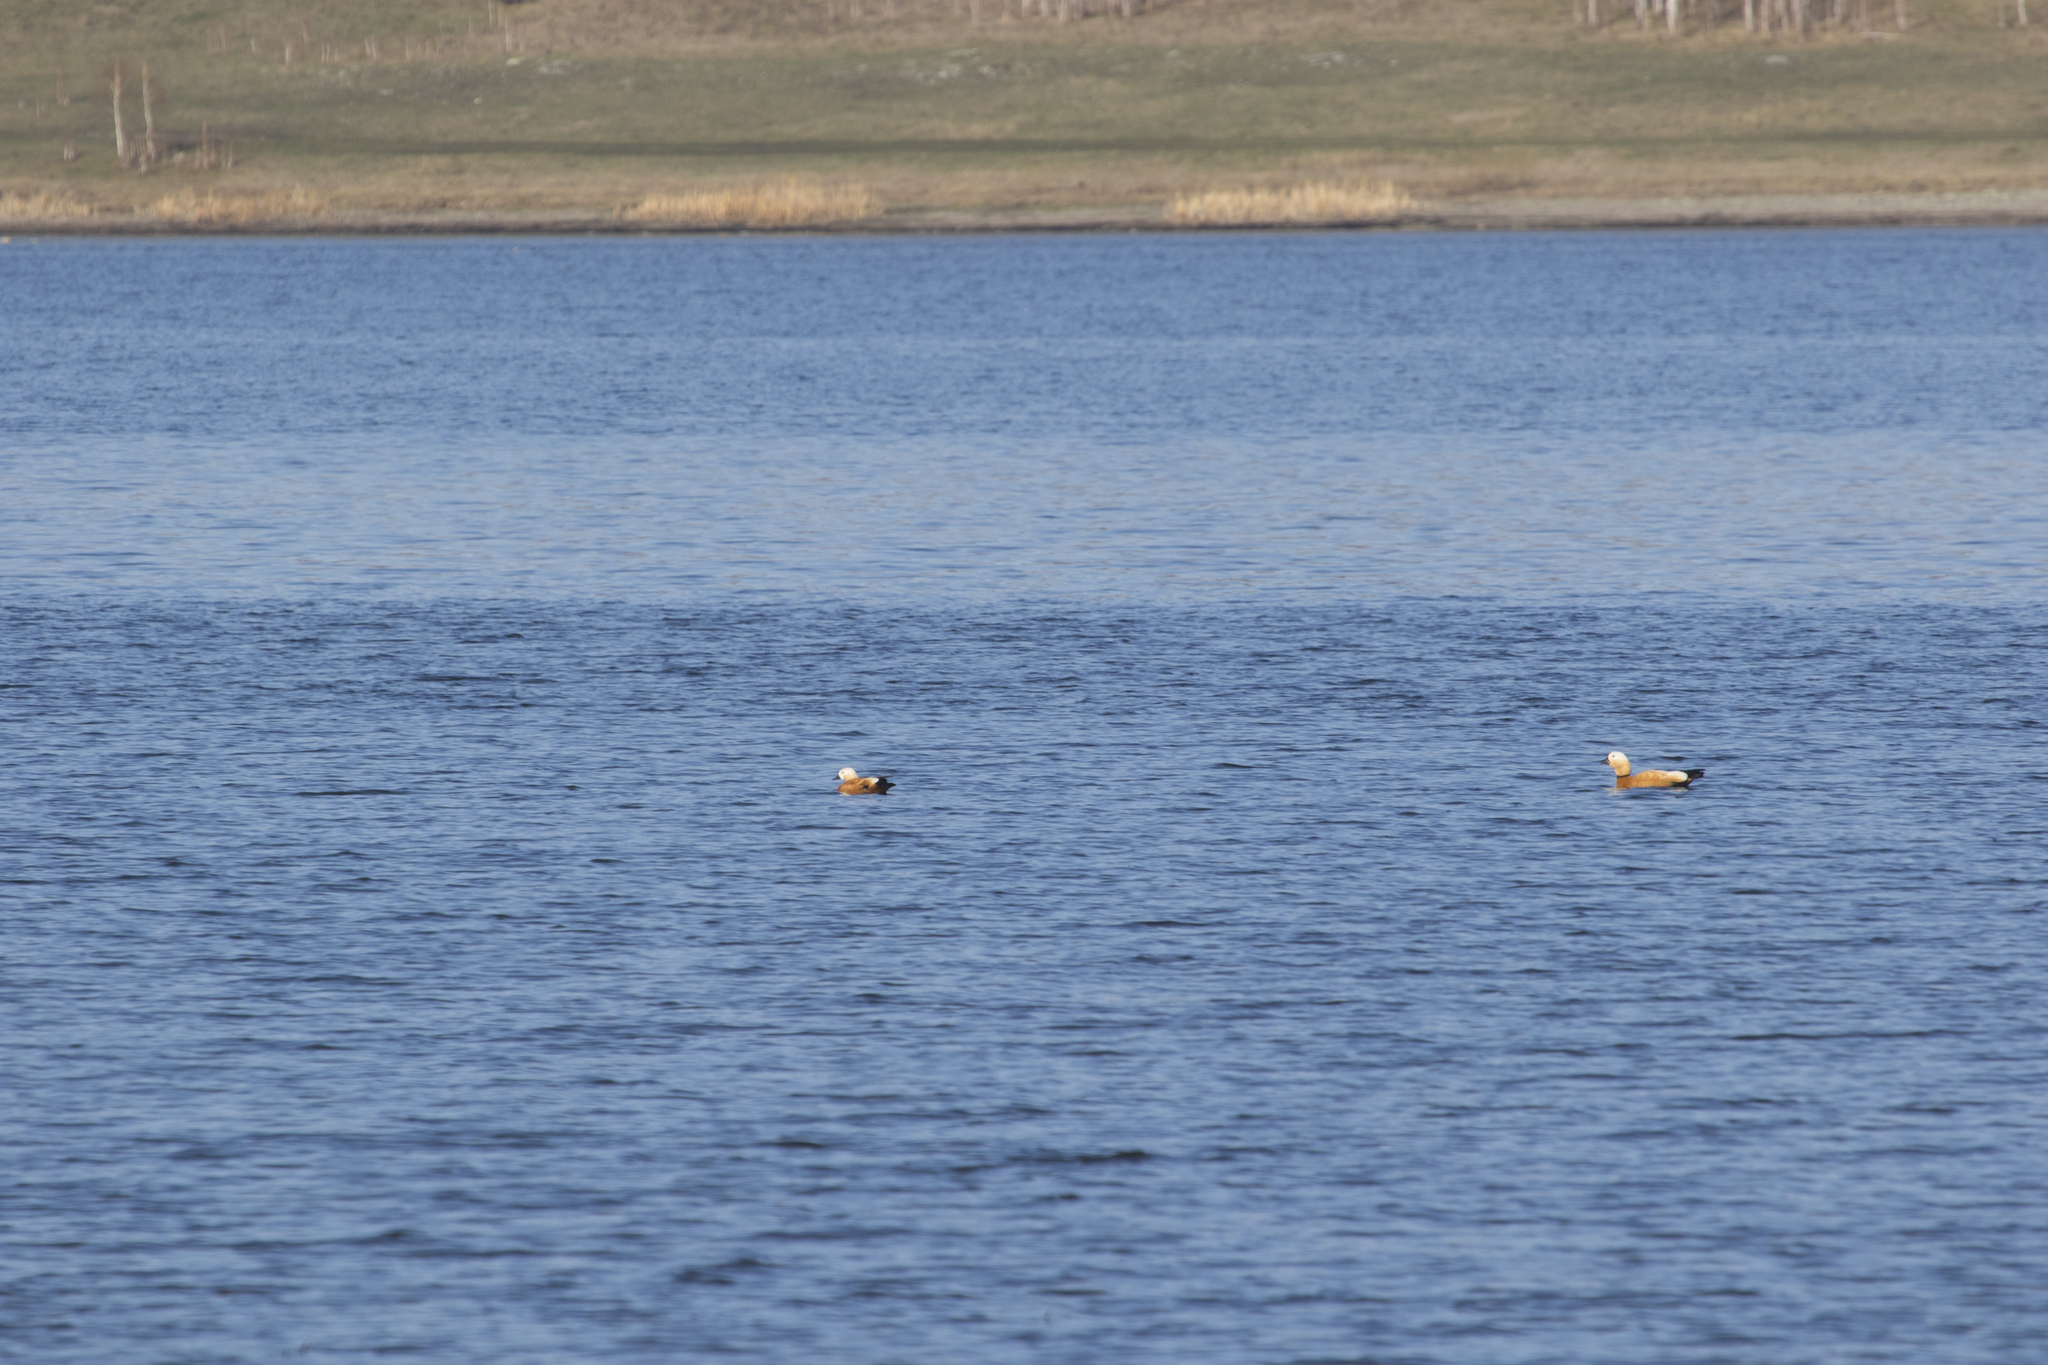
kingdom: Animalia
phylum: Chordata
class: Aves
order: Anseriformes
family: Anatidae
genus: Tadorna
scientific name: Tadorna ferruginea
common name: Ruddy shelduck
